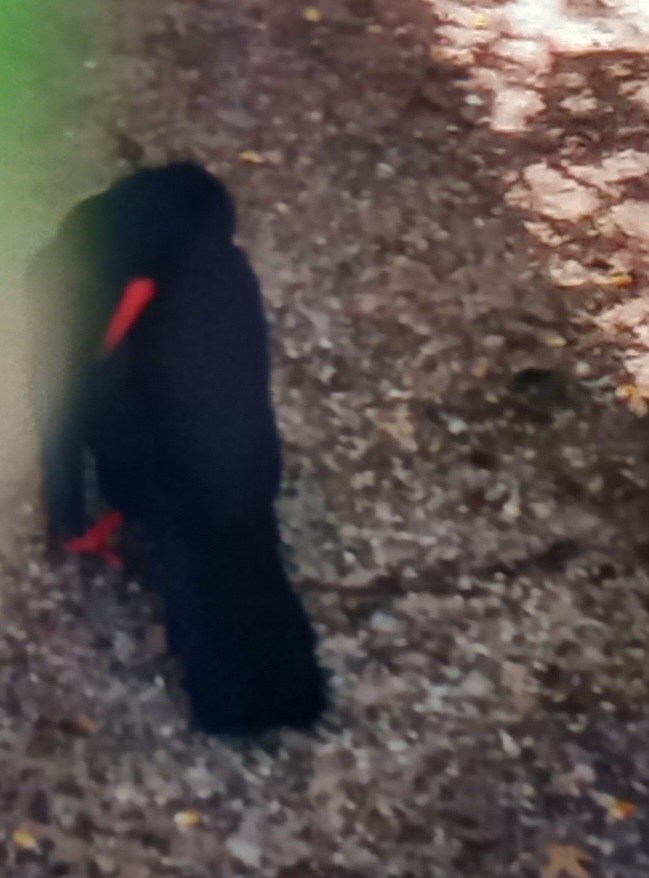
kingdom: Animalia
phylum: Chordata
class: Aves
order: Passeriformes
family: Corvidae
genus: Pyrrhocorax
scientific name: Pyrrhocorax pyrrhocorax
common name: Red-billed chough
